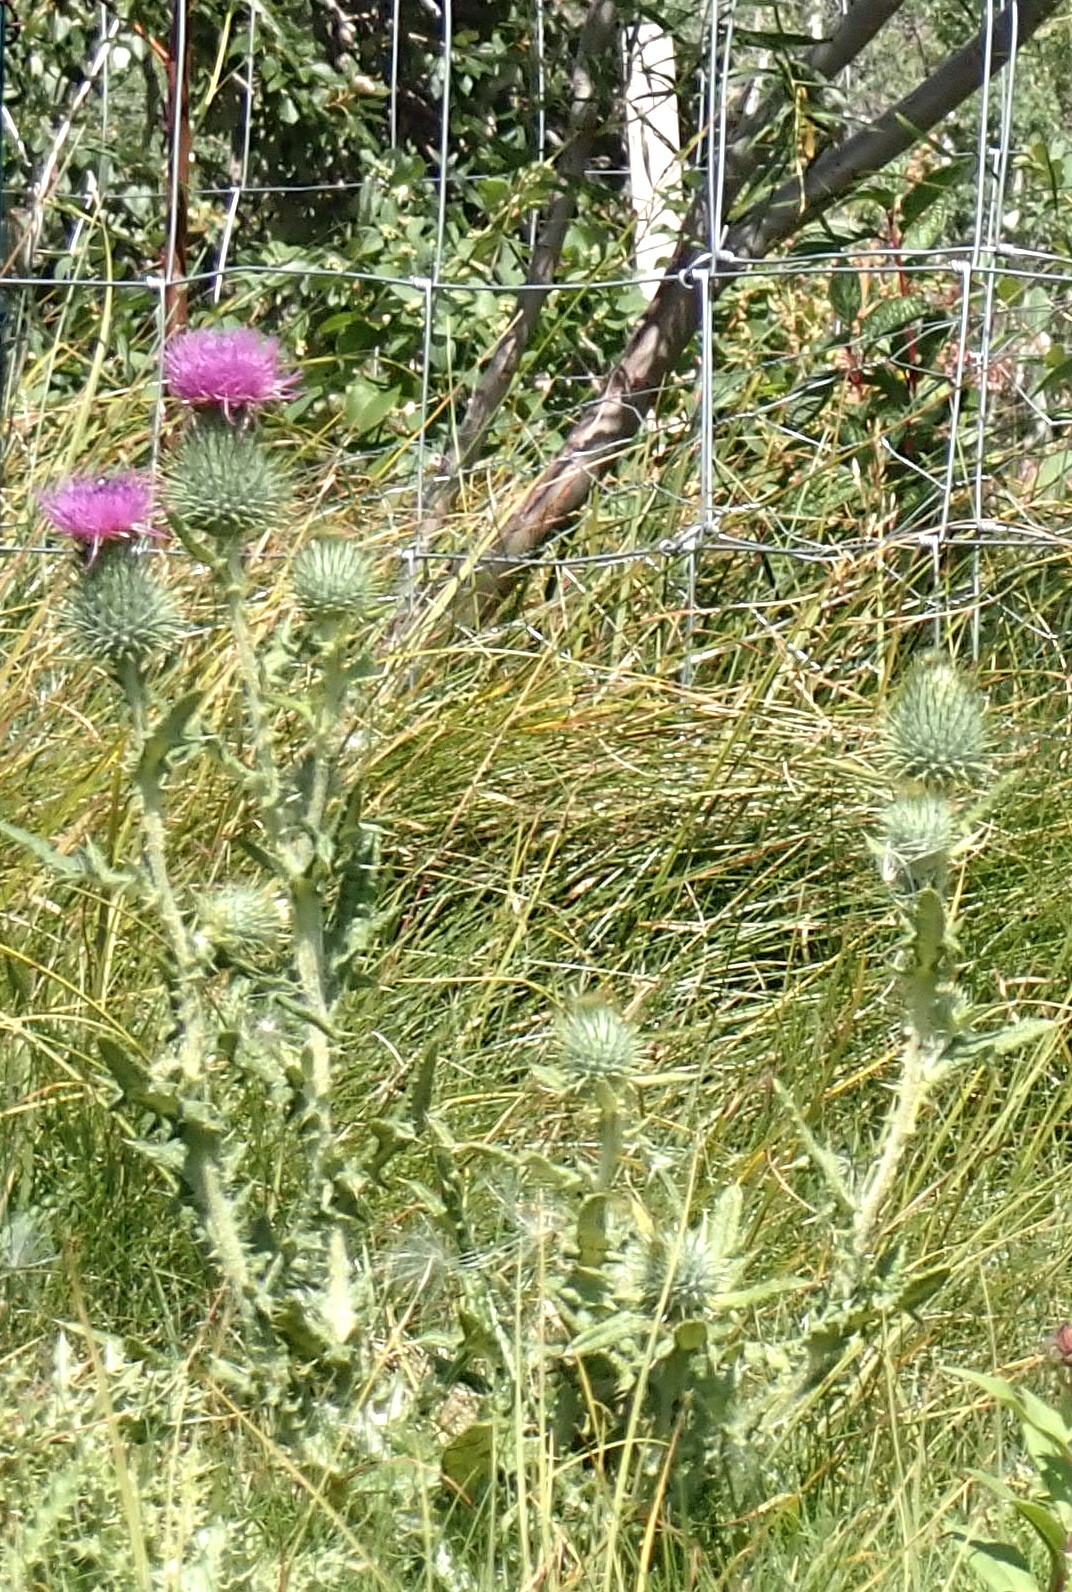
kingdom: Plantae
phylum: Tracheophyta
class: Magnoliopsida
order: Asterales
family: Asteraceae
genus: Cirsium
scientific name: Cirsium vulgare
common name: Bull thistle
